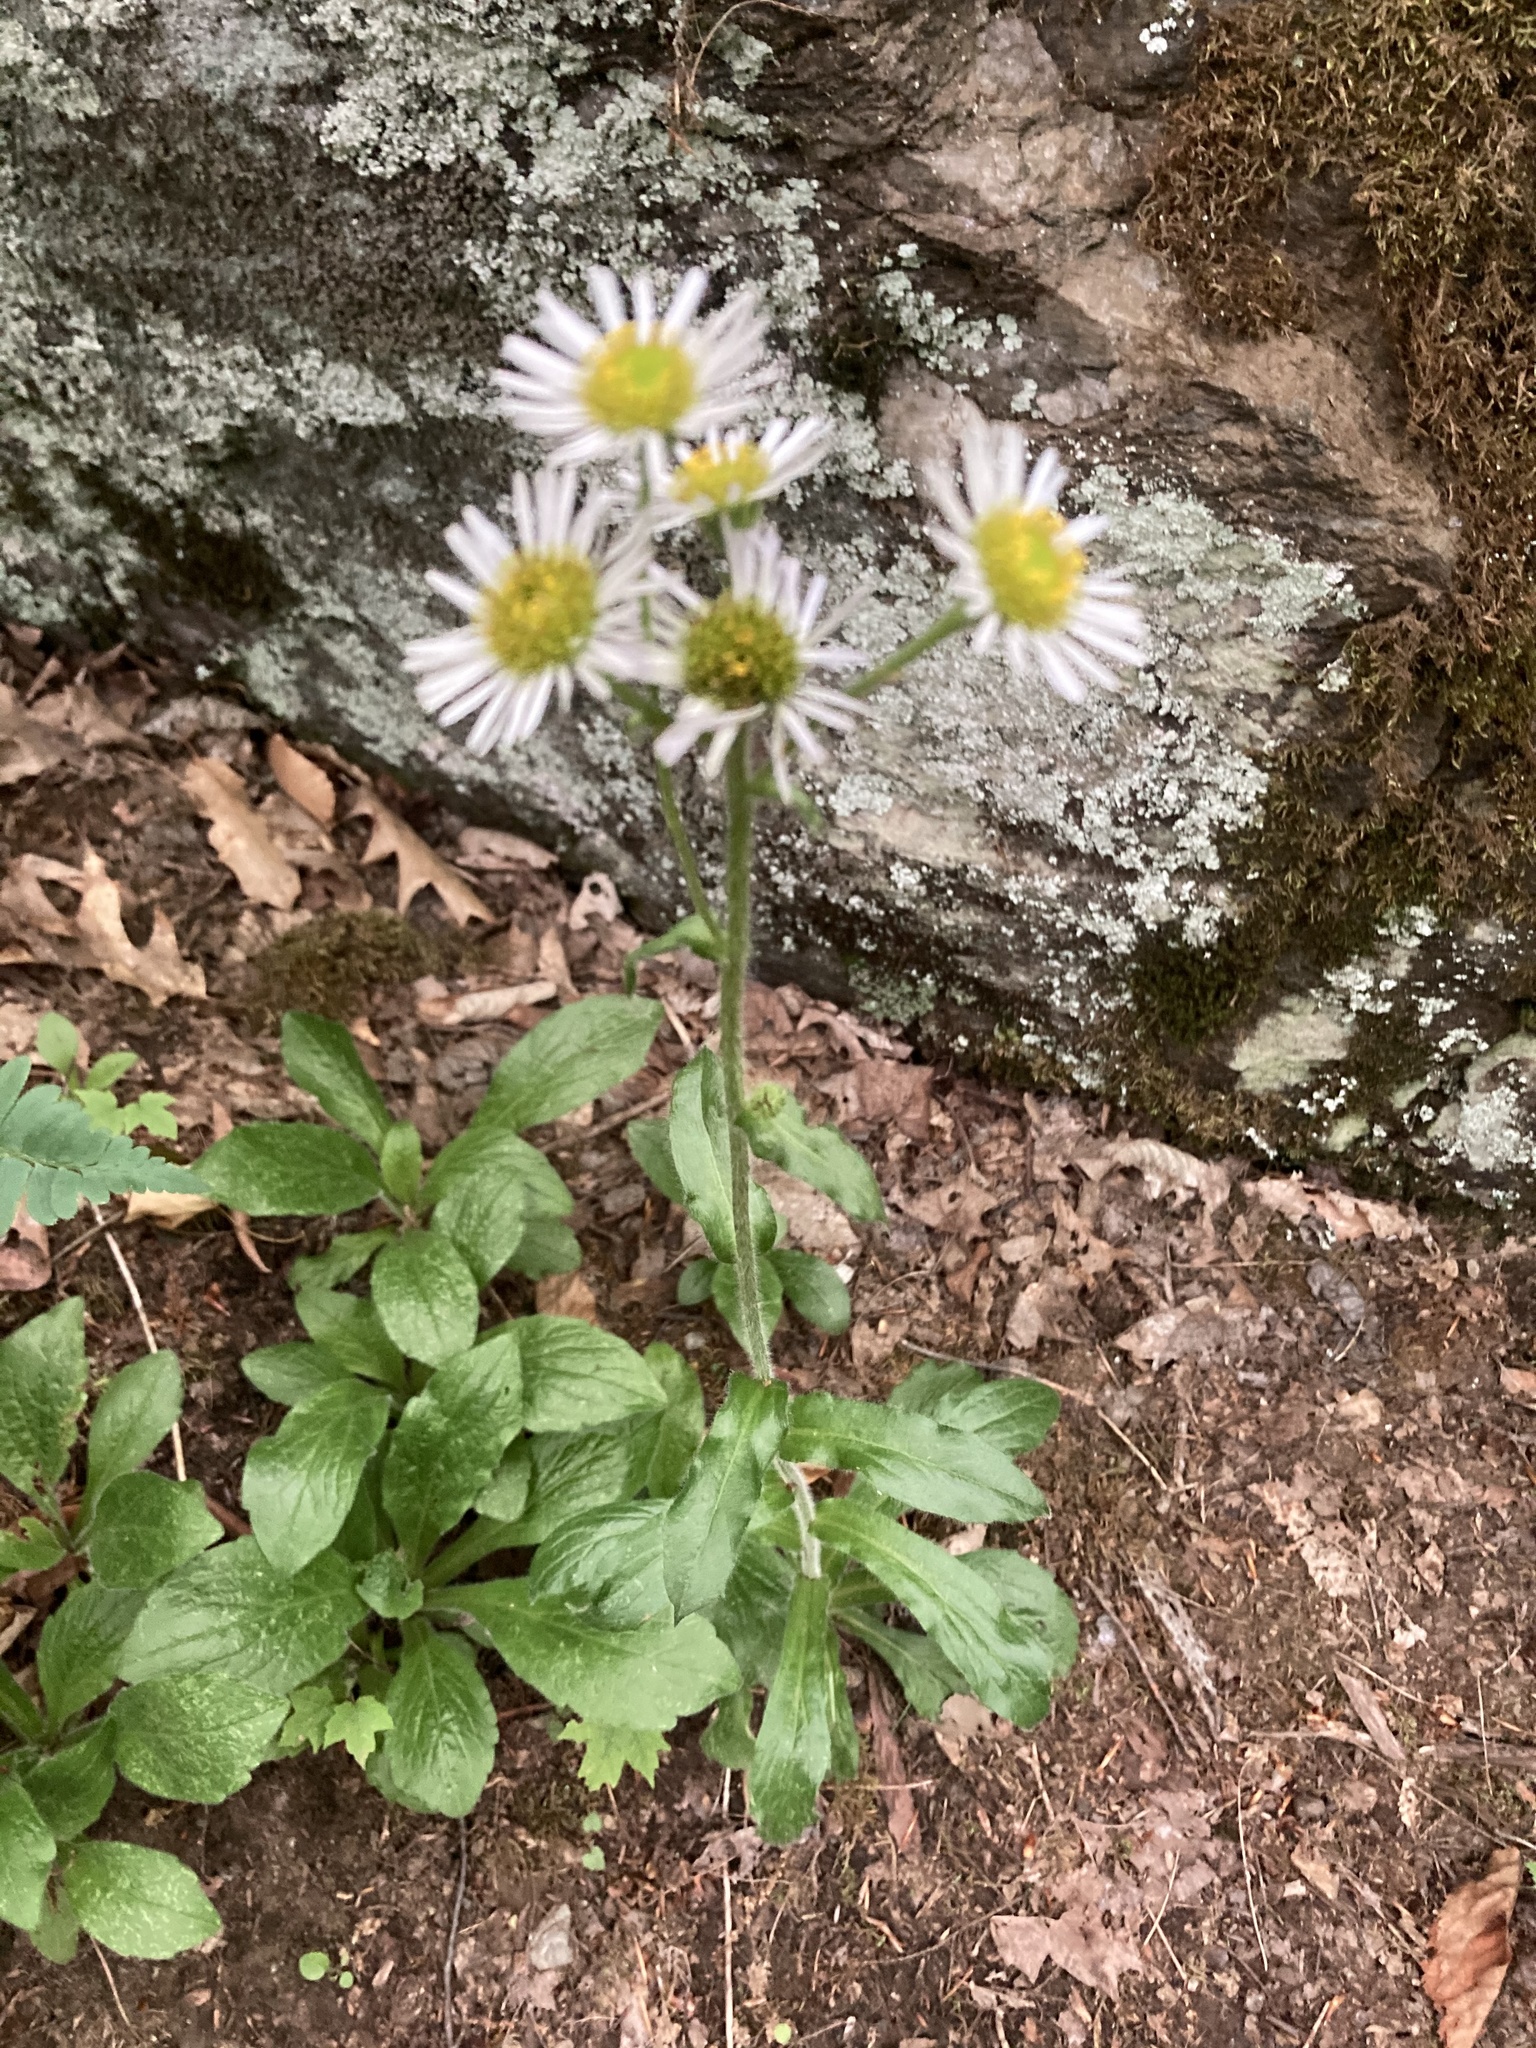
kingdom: Plantae
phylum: Tracheophyta
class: Magnoliopsida
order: Asterales
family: Asteraceae
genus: Erigeron
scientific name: Erigeron pulchellus
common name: Hairy fleabane
